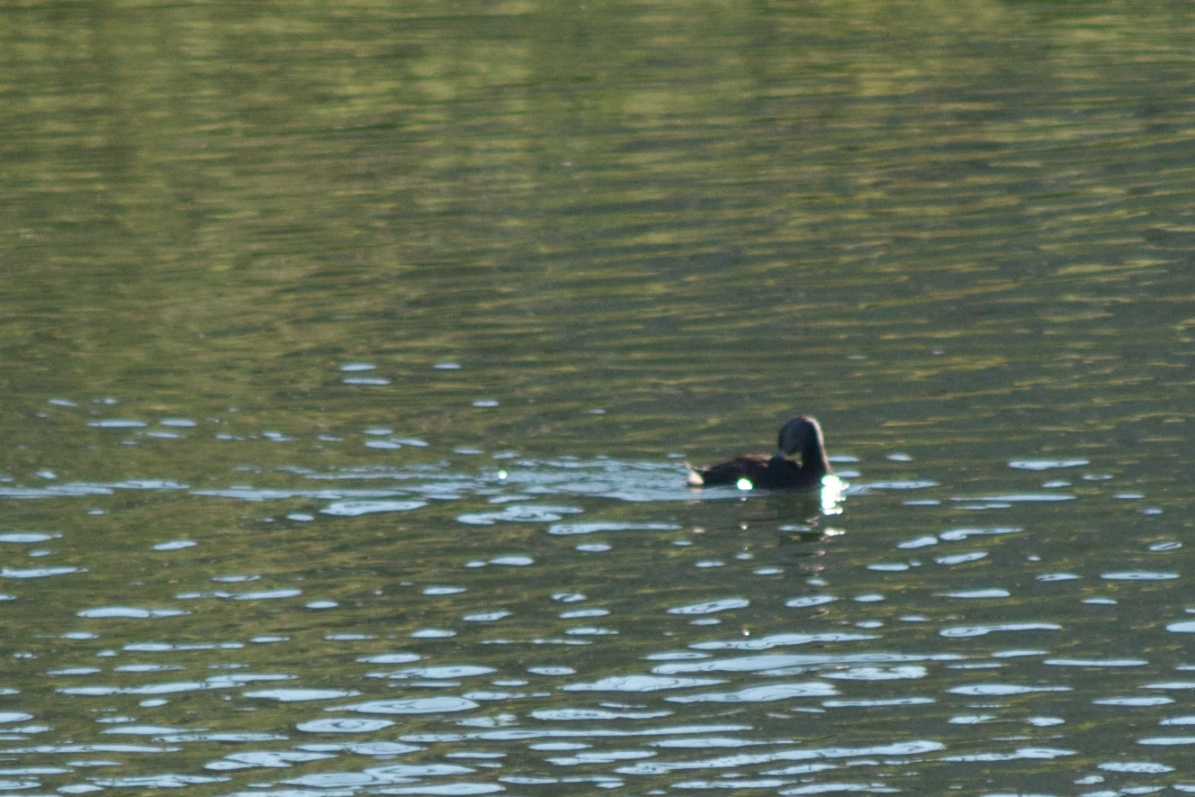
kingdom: Animalia
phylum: Chordata
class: Aves
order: Podicipediformes
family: Podicipedidae
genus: Podilymbus
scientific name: Podilymbus podiceps
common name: Pied-billed grebe
